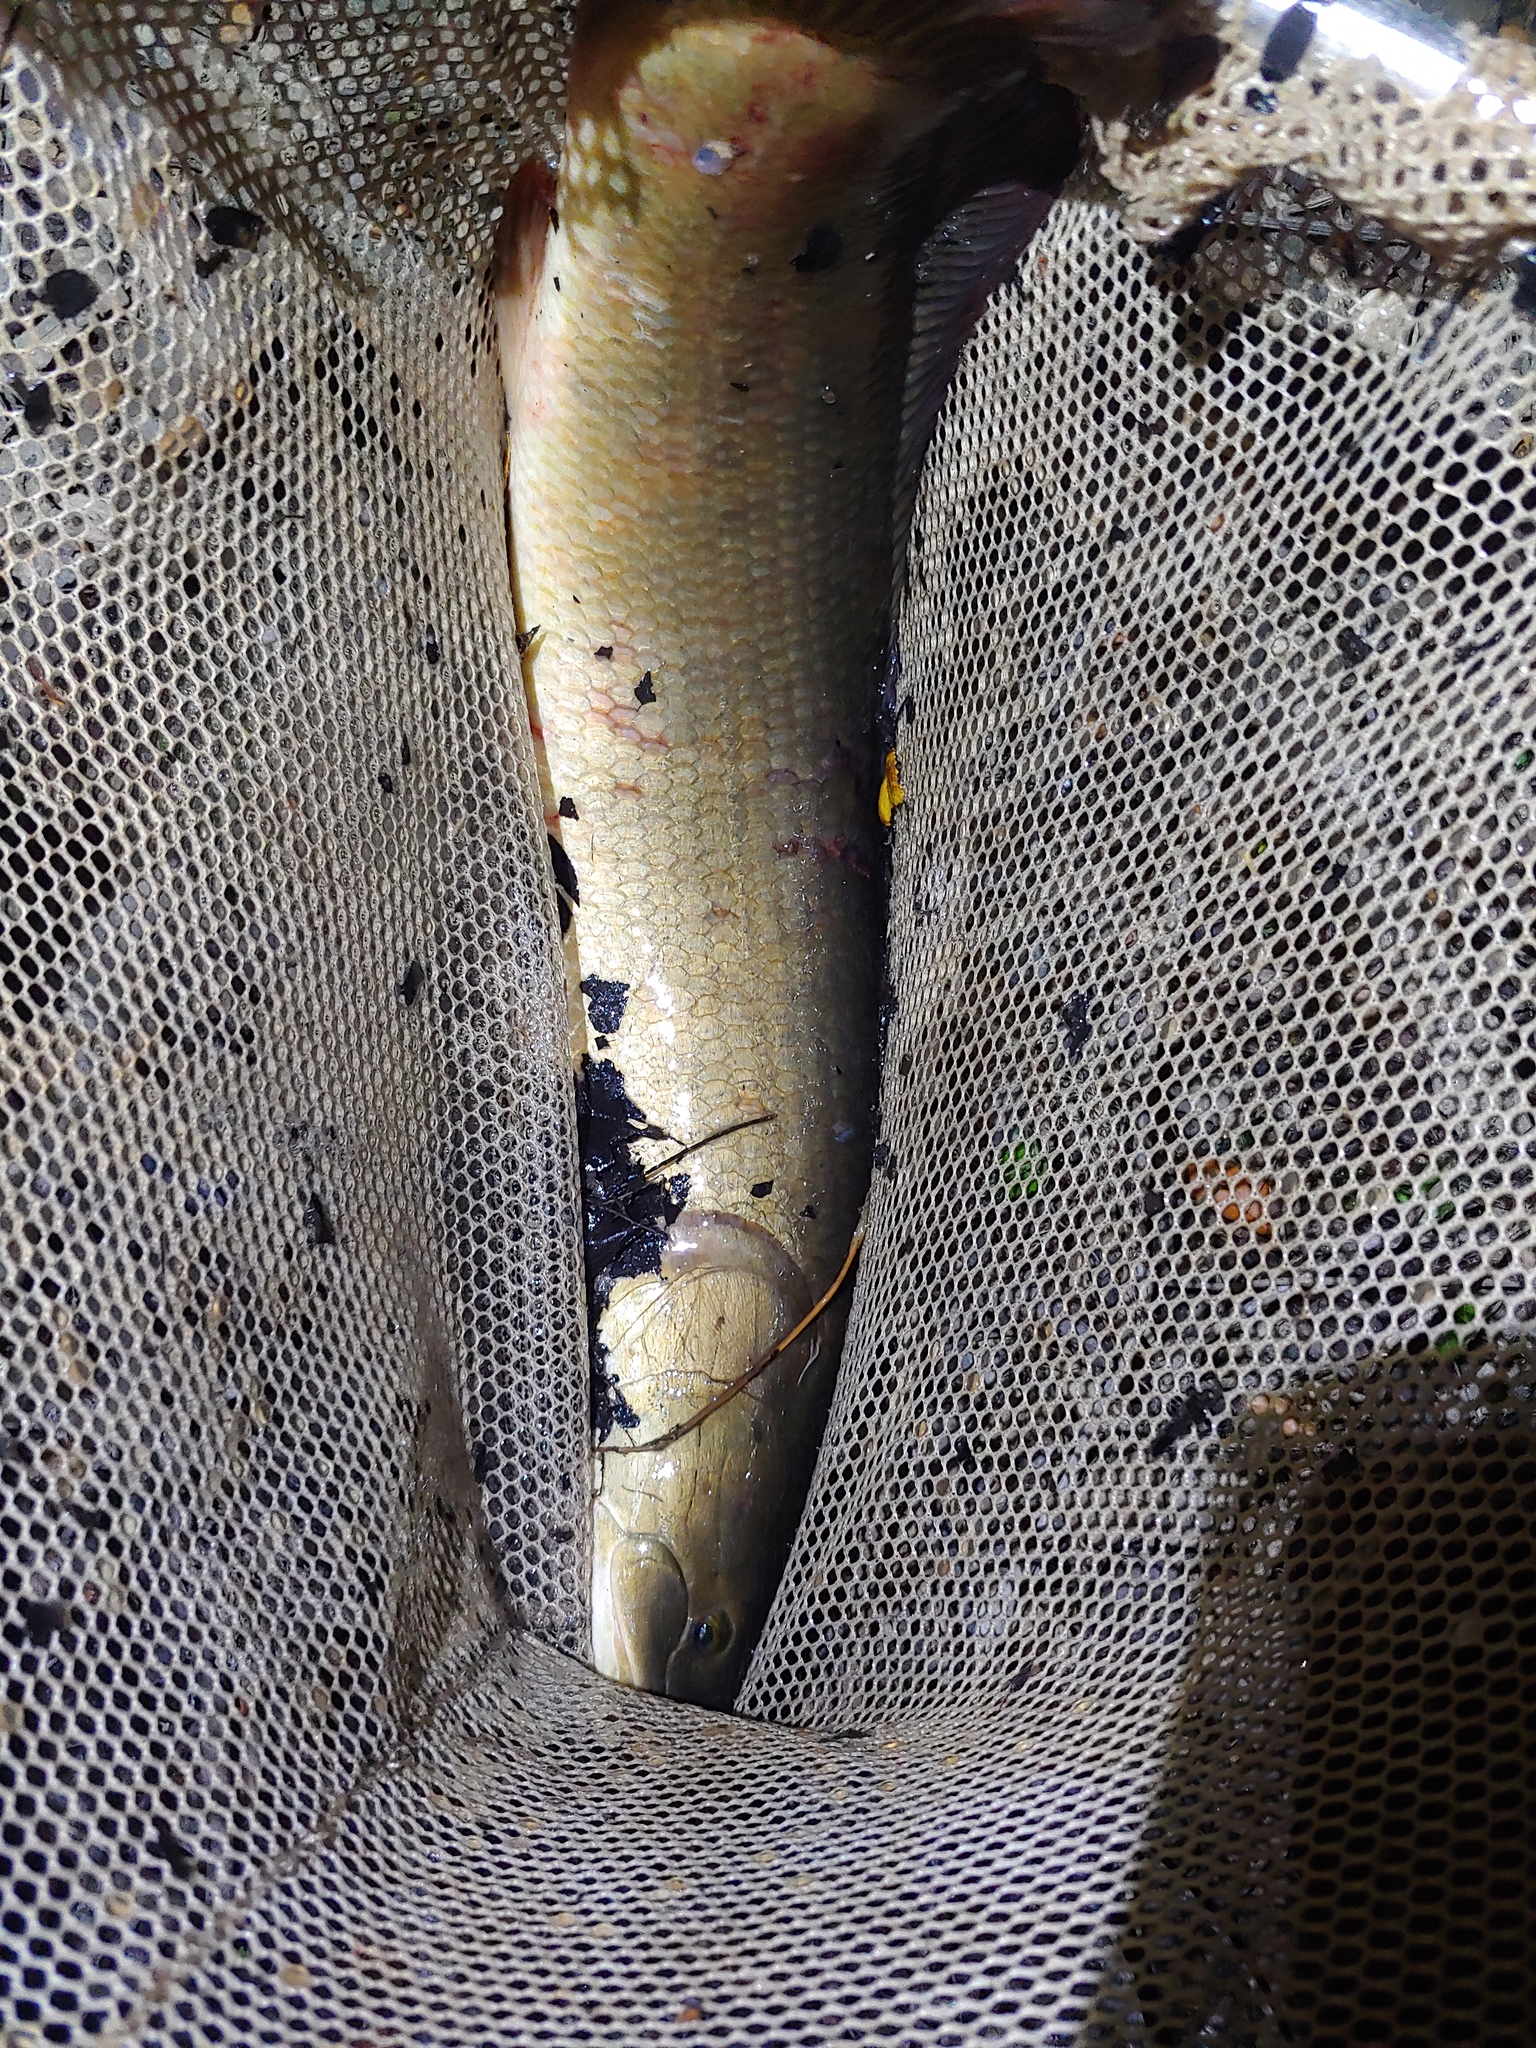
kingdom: Animalia
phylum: Chordata
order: Amiiformes
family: Amiidae
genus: Amia
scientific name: Amia calva
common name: Bowfin
